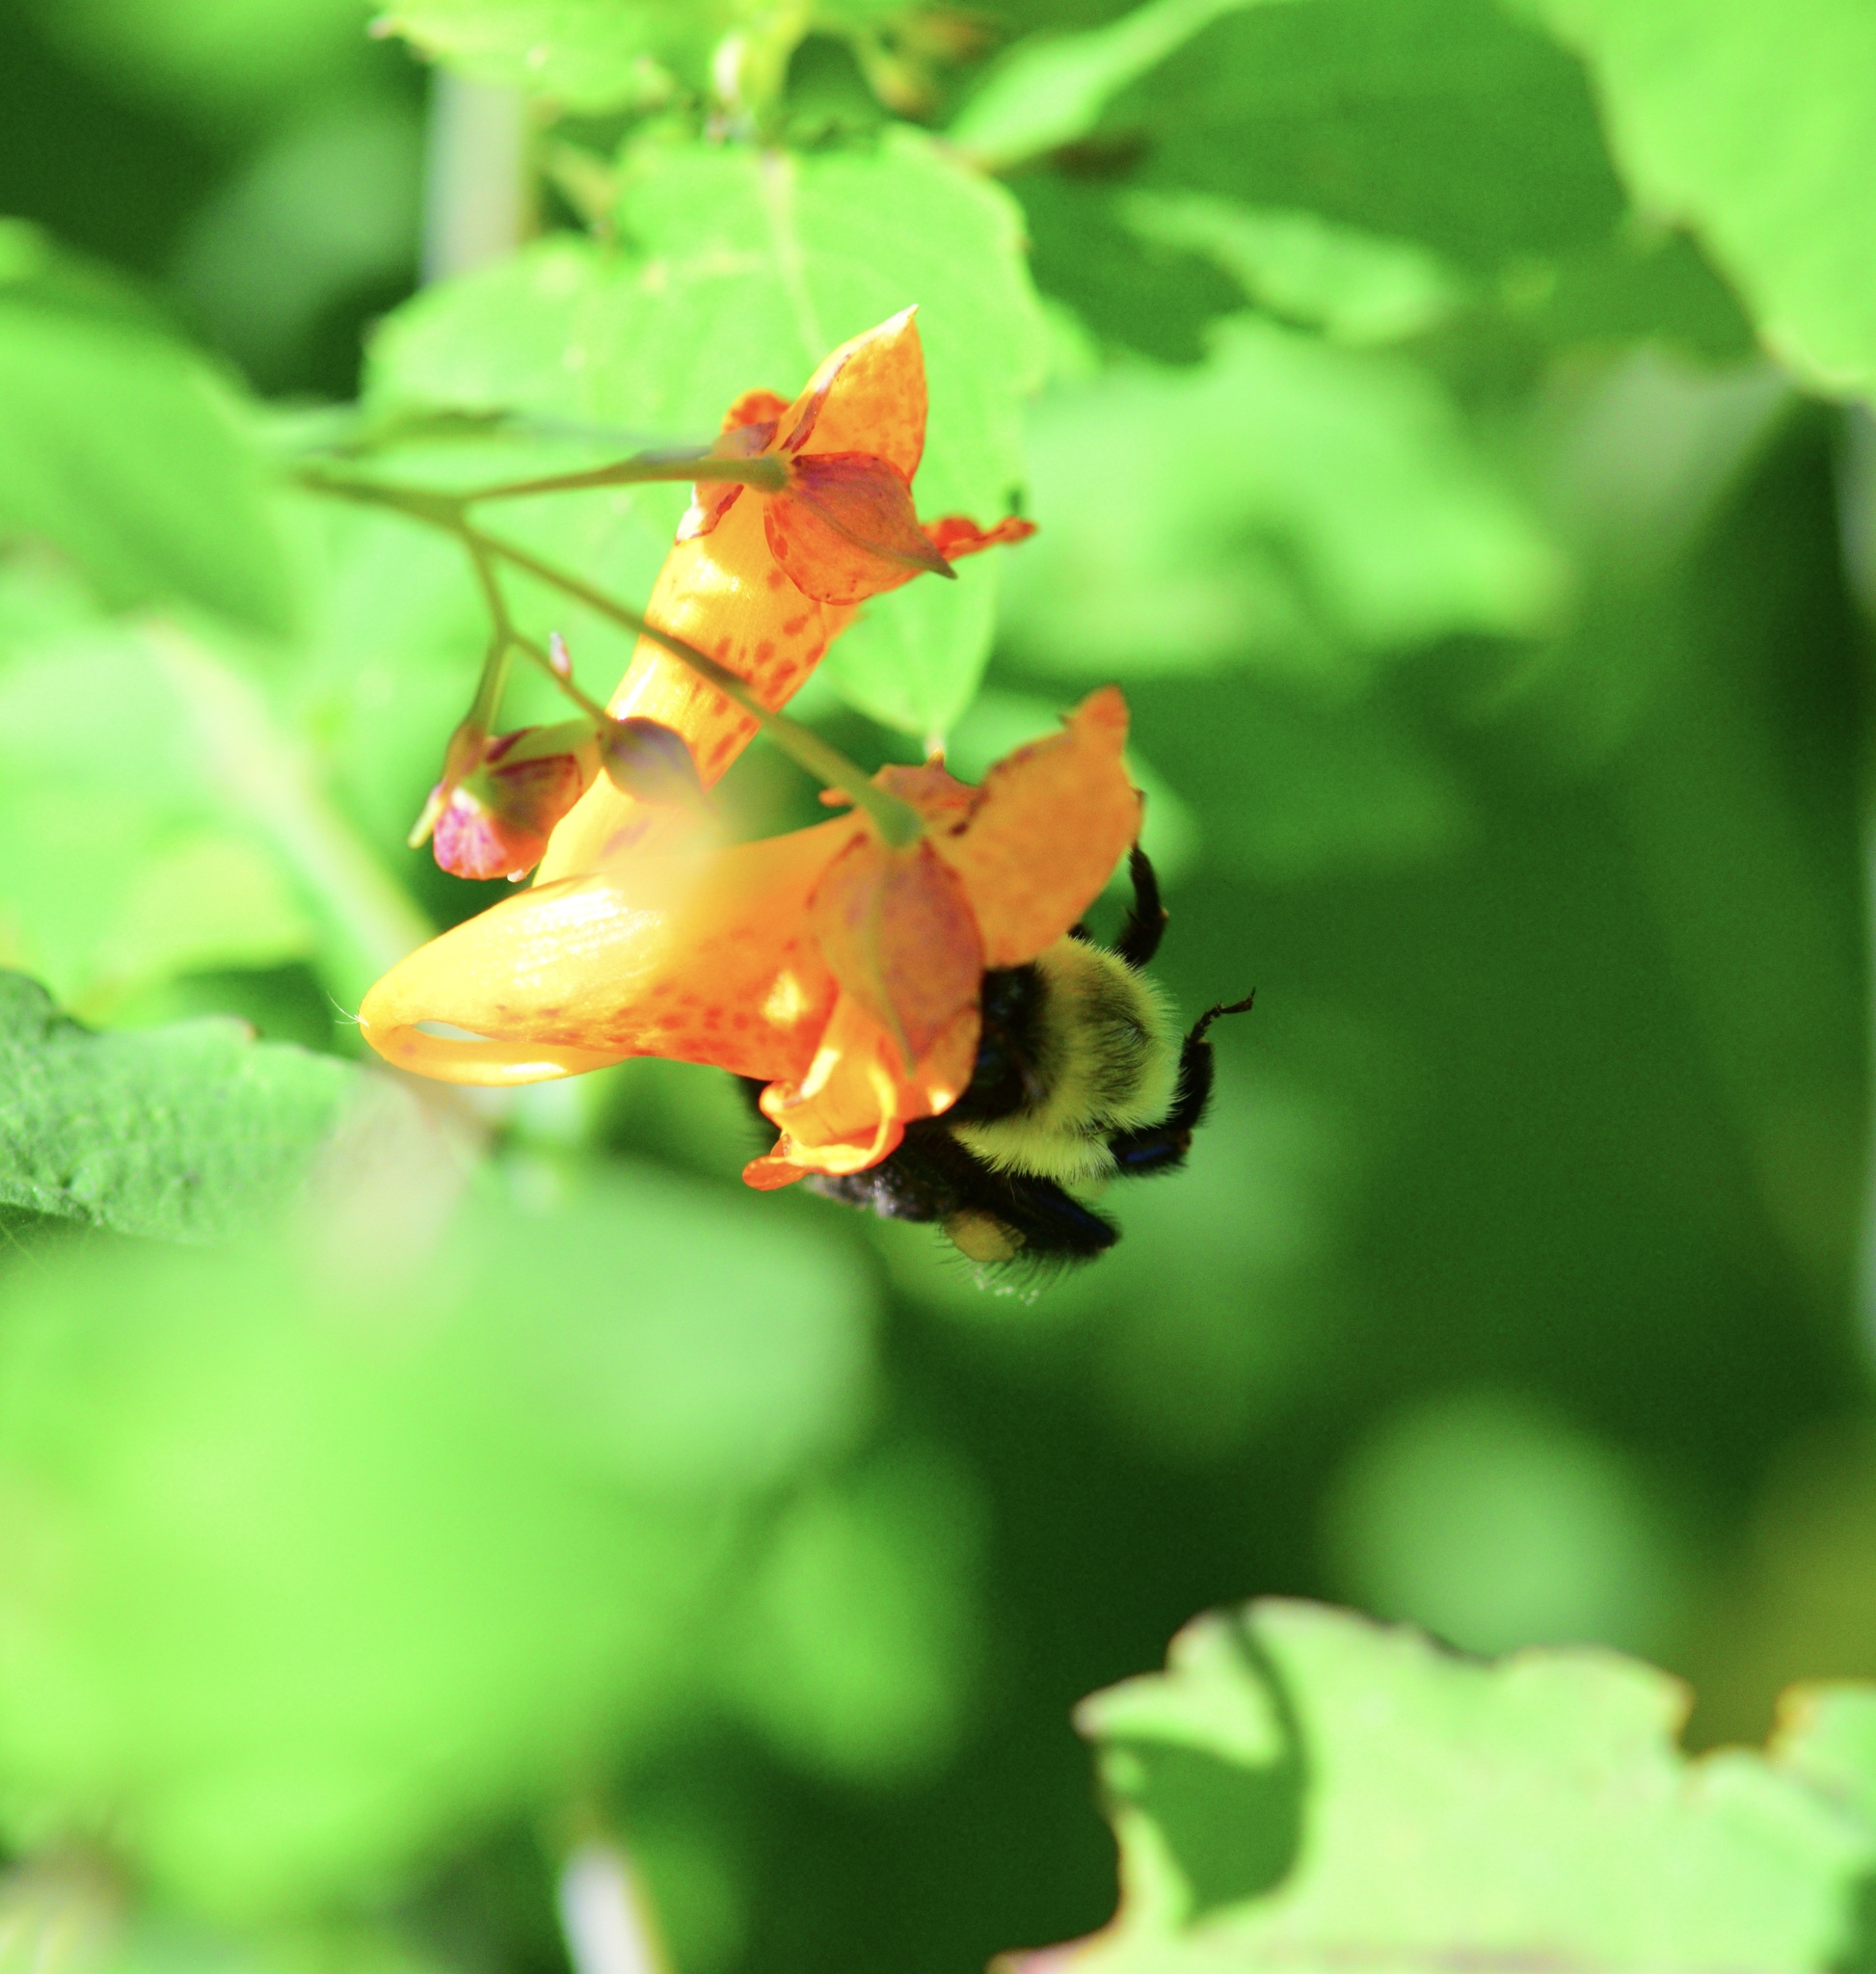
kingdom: Animalia
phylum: Arthropoda
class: Insecta
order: Hymenoptera
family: Apidae
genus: Bombus
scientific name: Bombus impatiens
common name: Common eastern bumble bee
